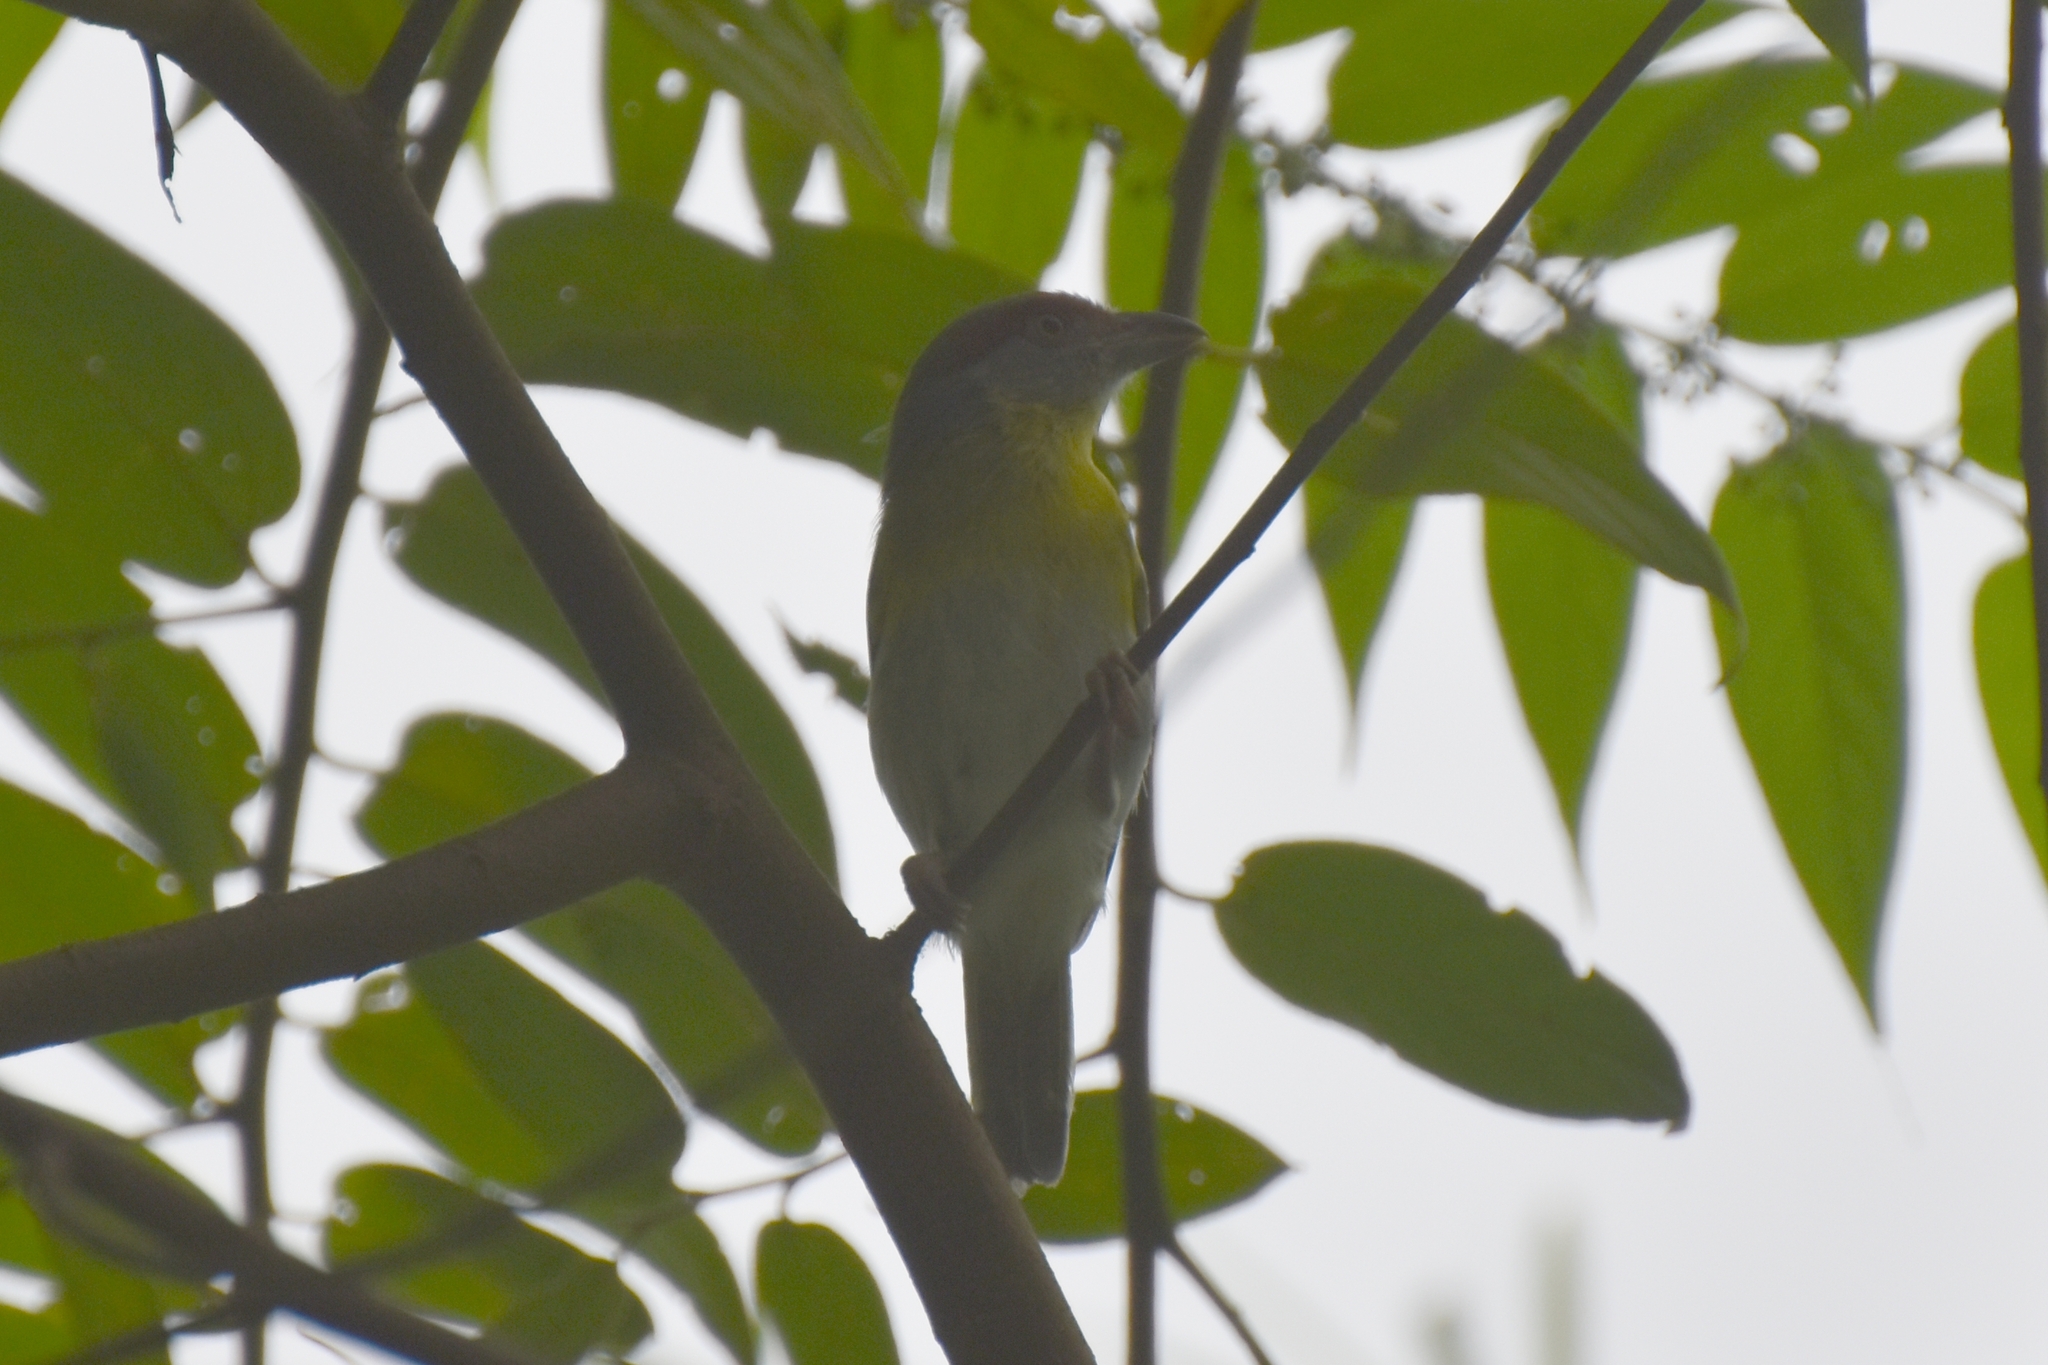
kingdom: Animalia
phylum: Chordata
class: Aves
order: Passeriformes
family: Vireonidae
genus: Cyclarhis
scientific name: Cyclarhis gujanensis
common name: Rufous-browed peppershrike
